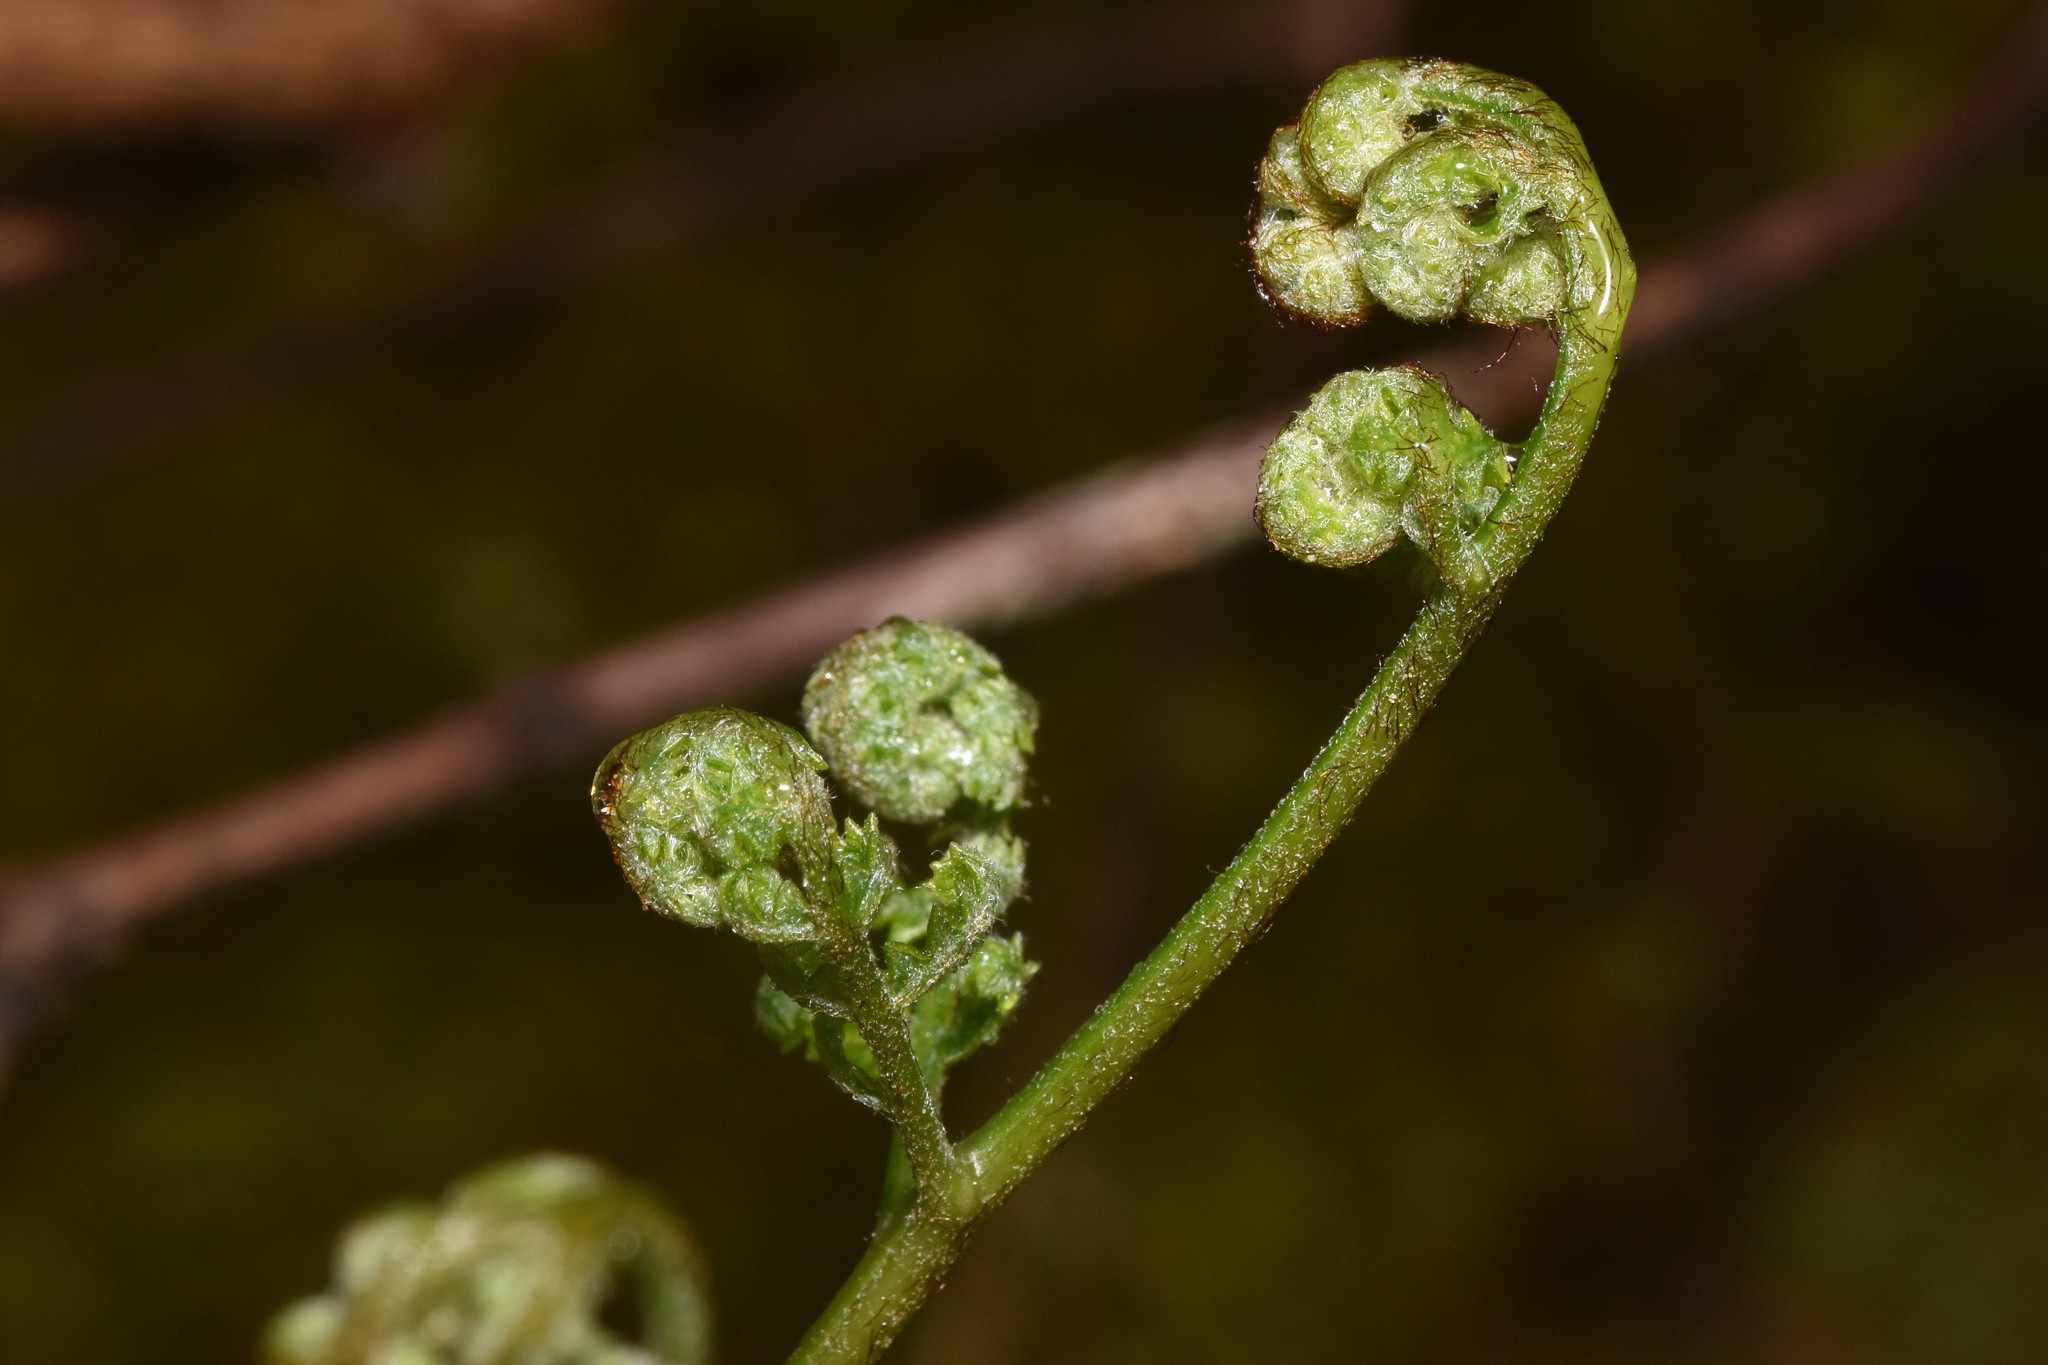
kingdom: Plantae
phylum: Tracheophyta
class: Polypodiopsida
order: Polypodiales
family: Dennstaedtiaceae
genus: Pteridium
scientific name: Pteridium aquilinum
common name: Bracken
